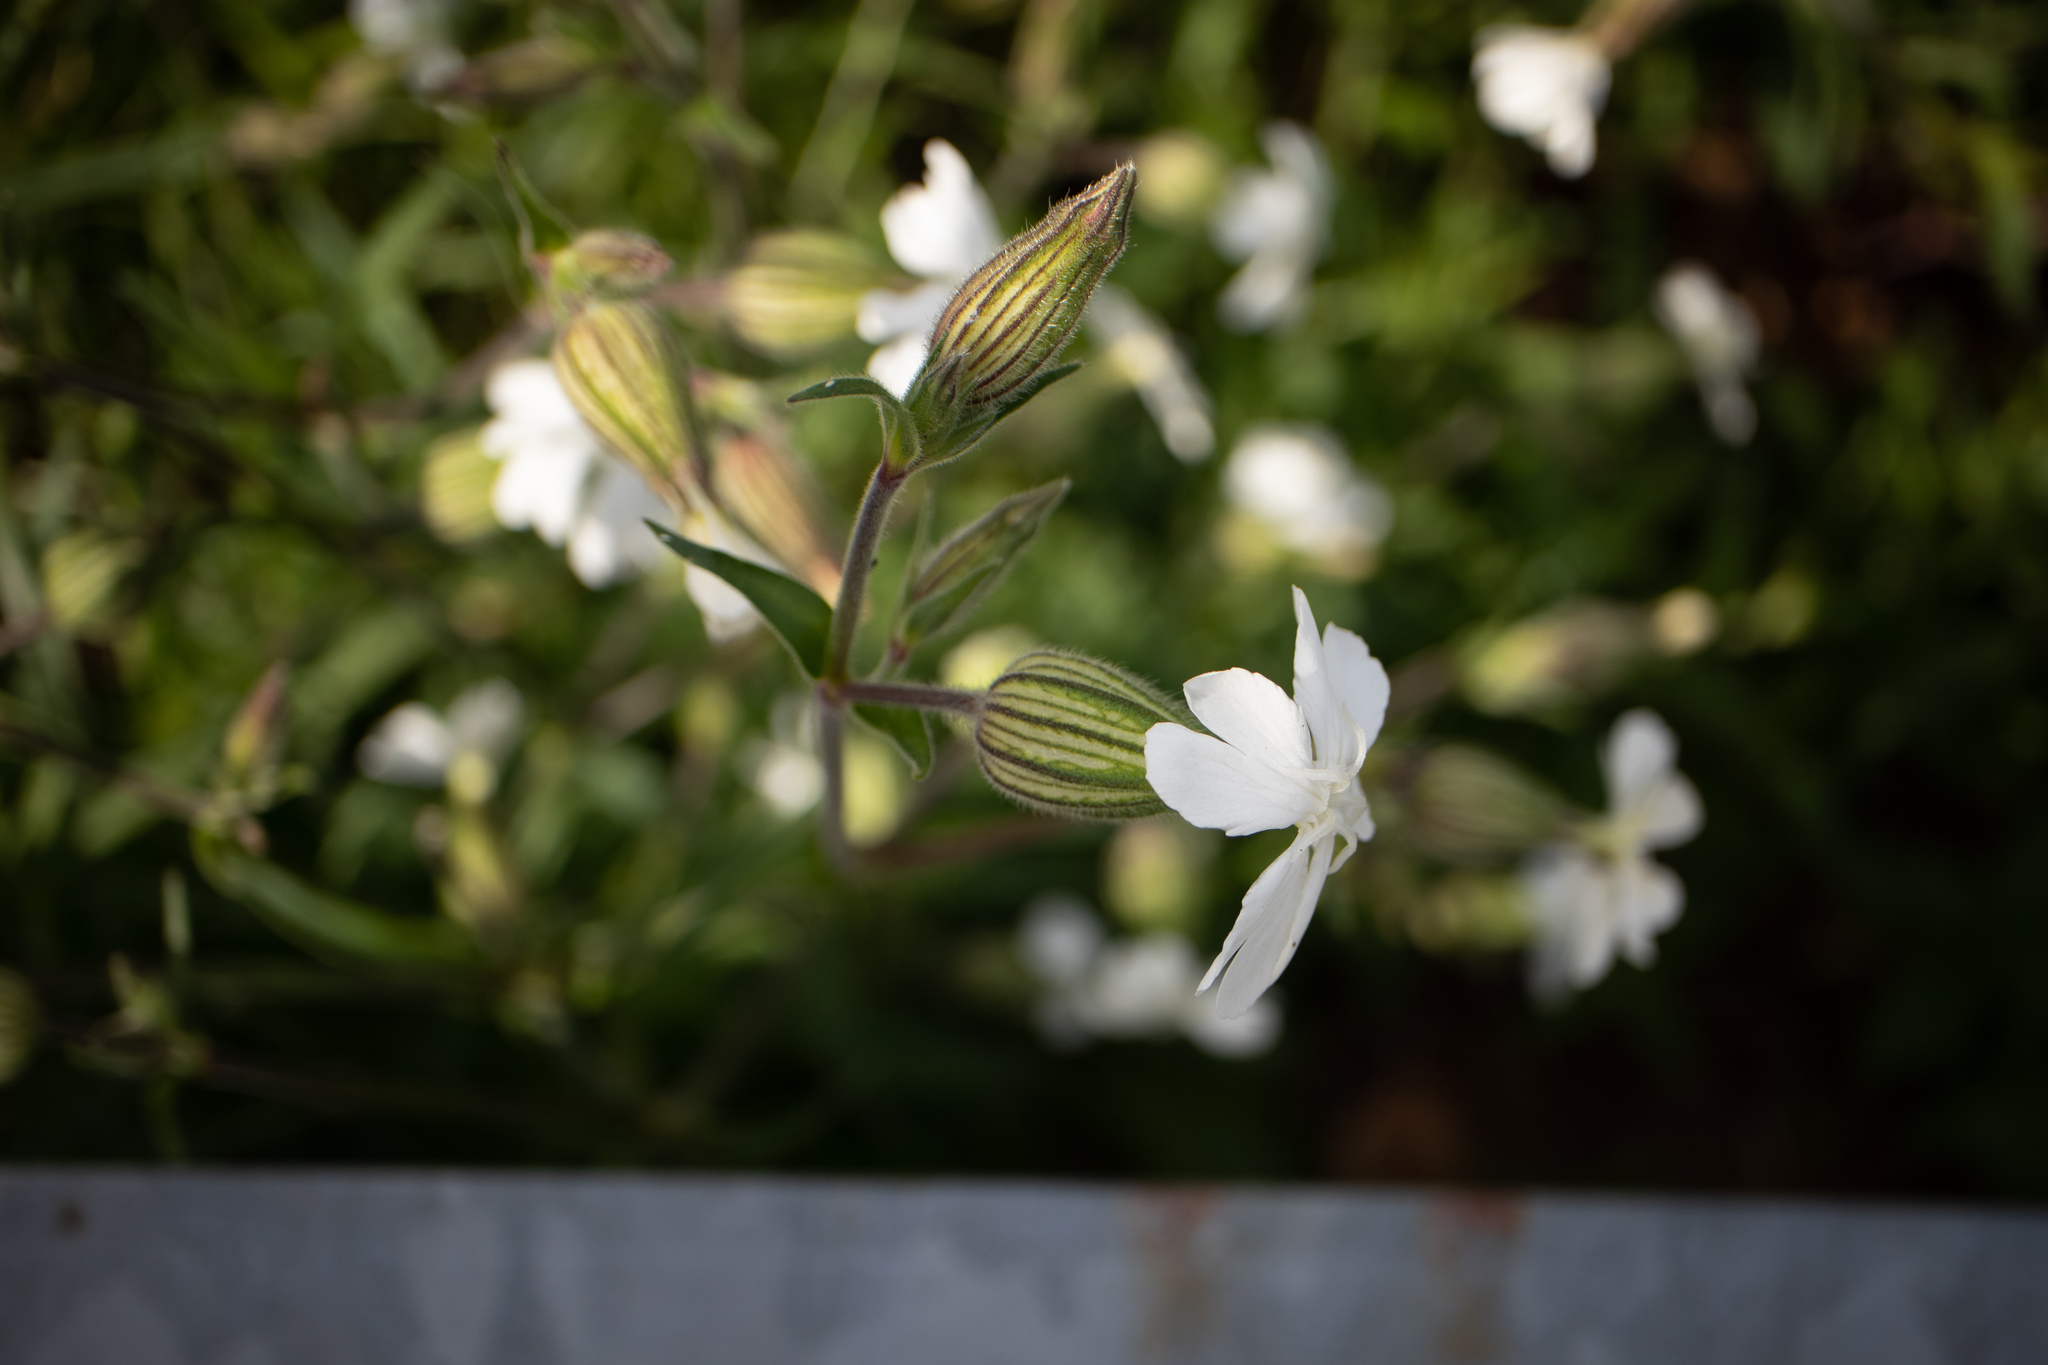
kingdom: Plantae
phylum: Tracheophyta
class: Magnoliopsida
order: Caryophyllales
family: Caryophyllaceae
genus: Silene
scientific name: Silene latifolia
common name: White campion
